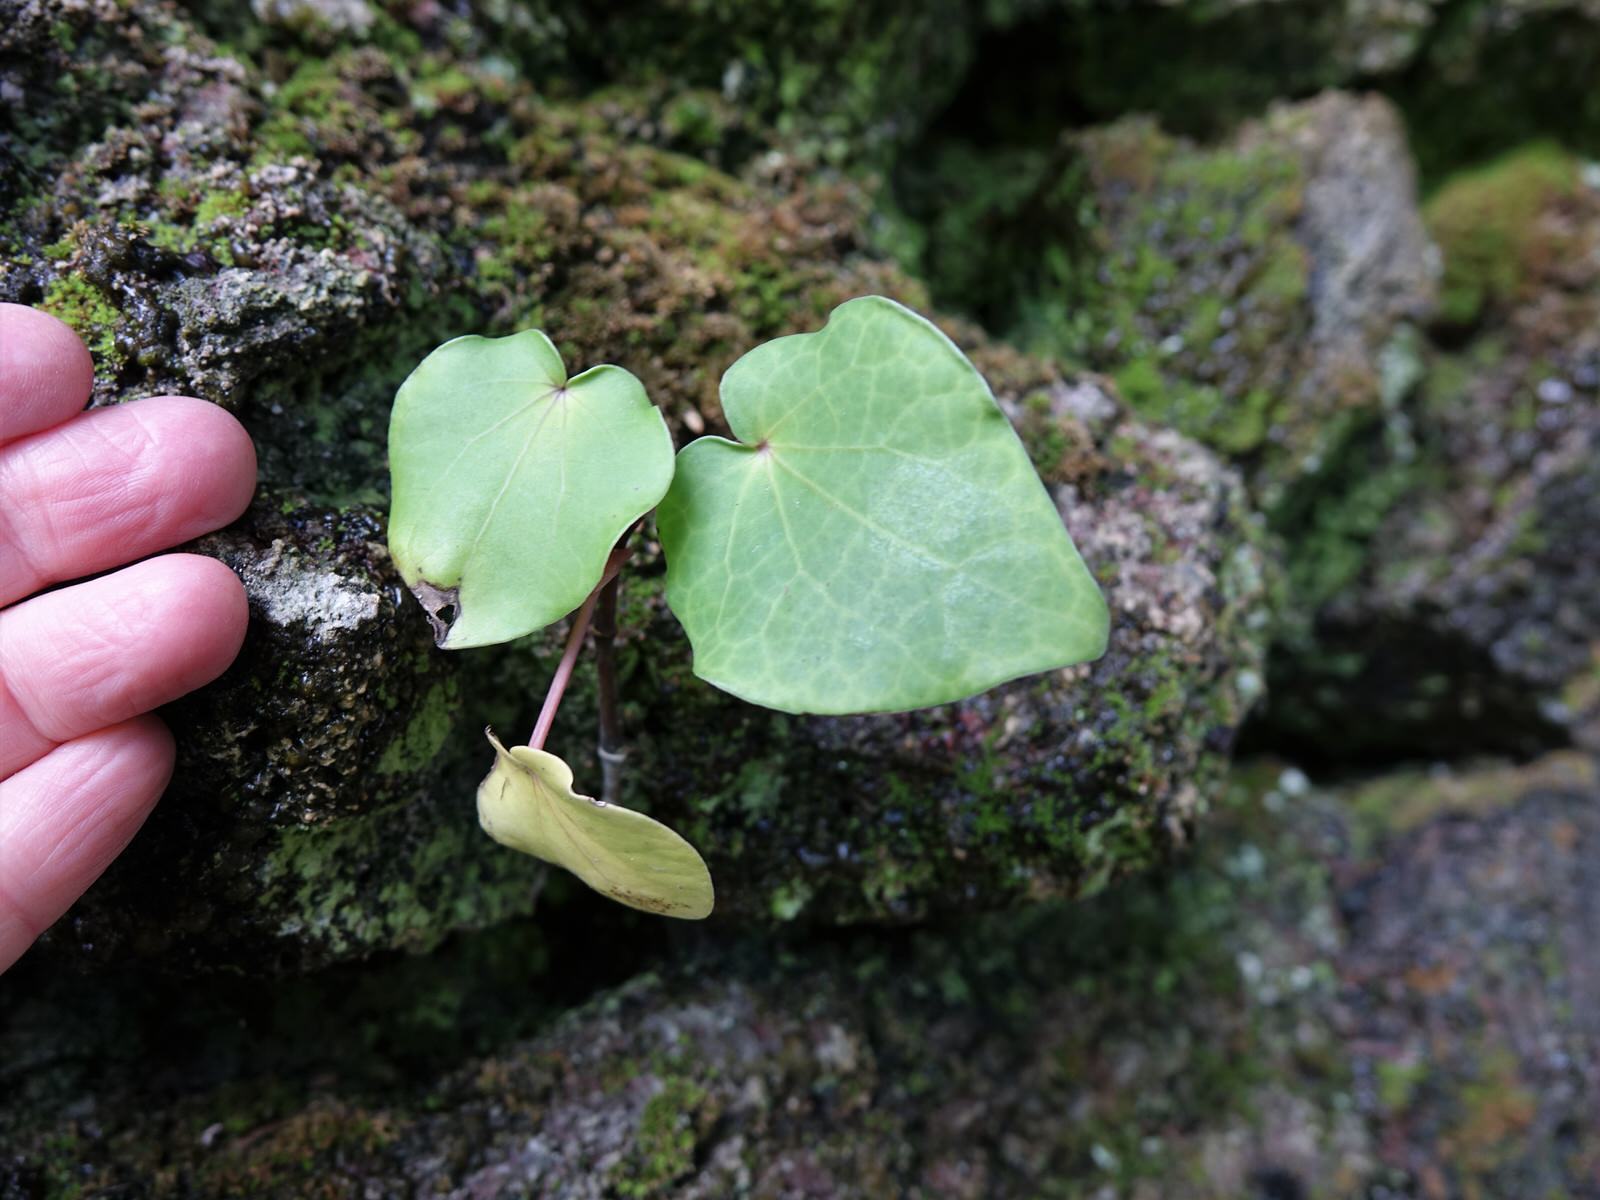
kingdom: Plantae
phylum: Tracheophyta
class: Magnoliopsida
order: Piperales
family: Piperaceae
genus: Macropiper
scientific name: Macropiper excelsum
